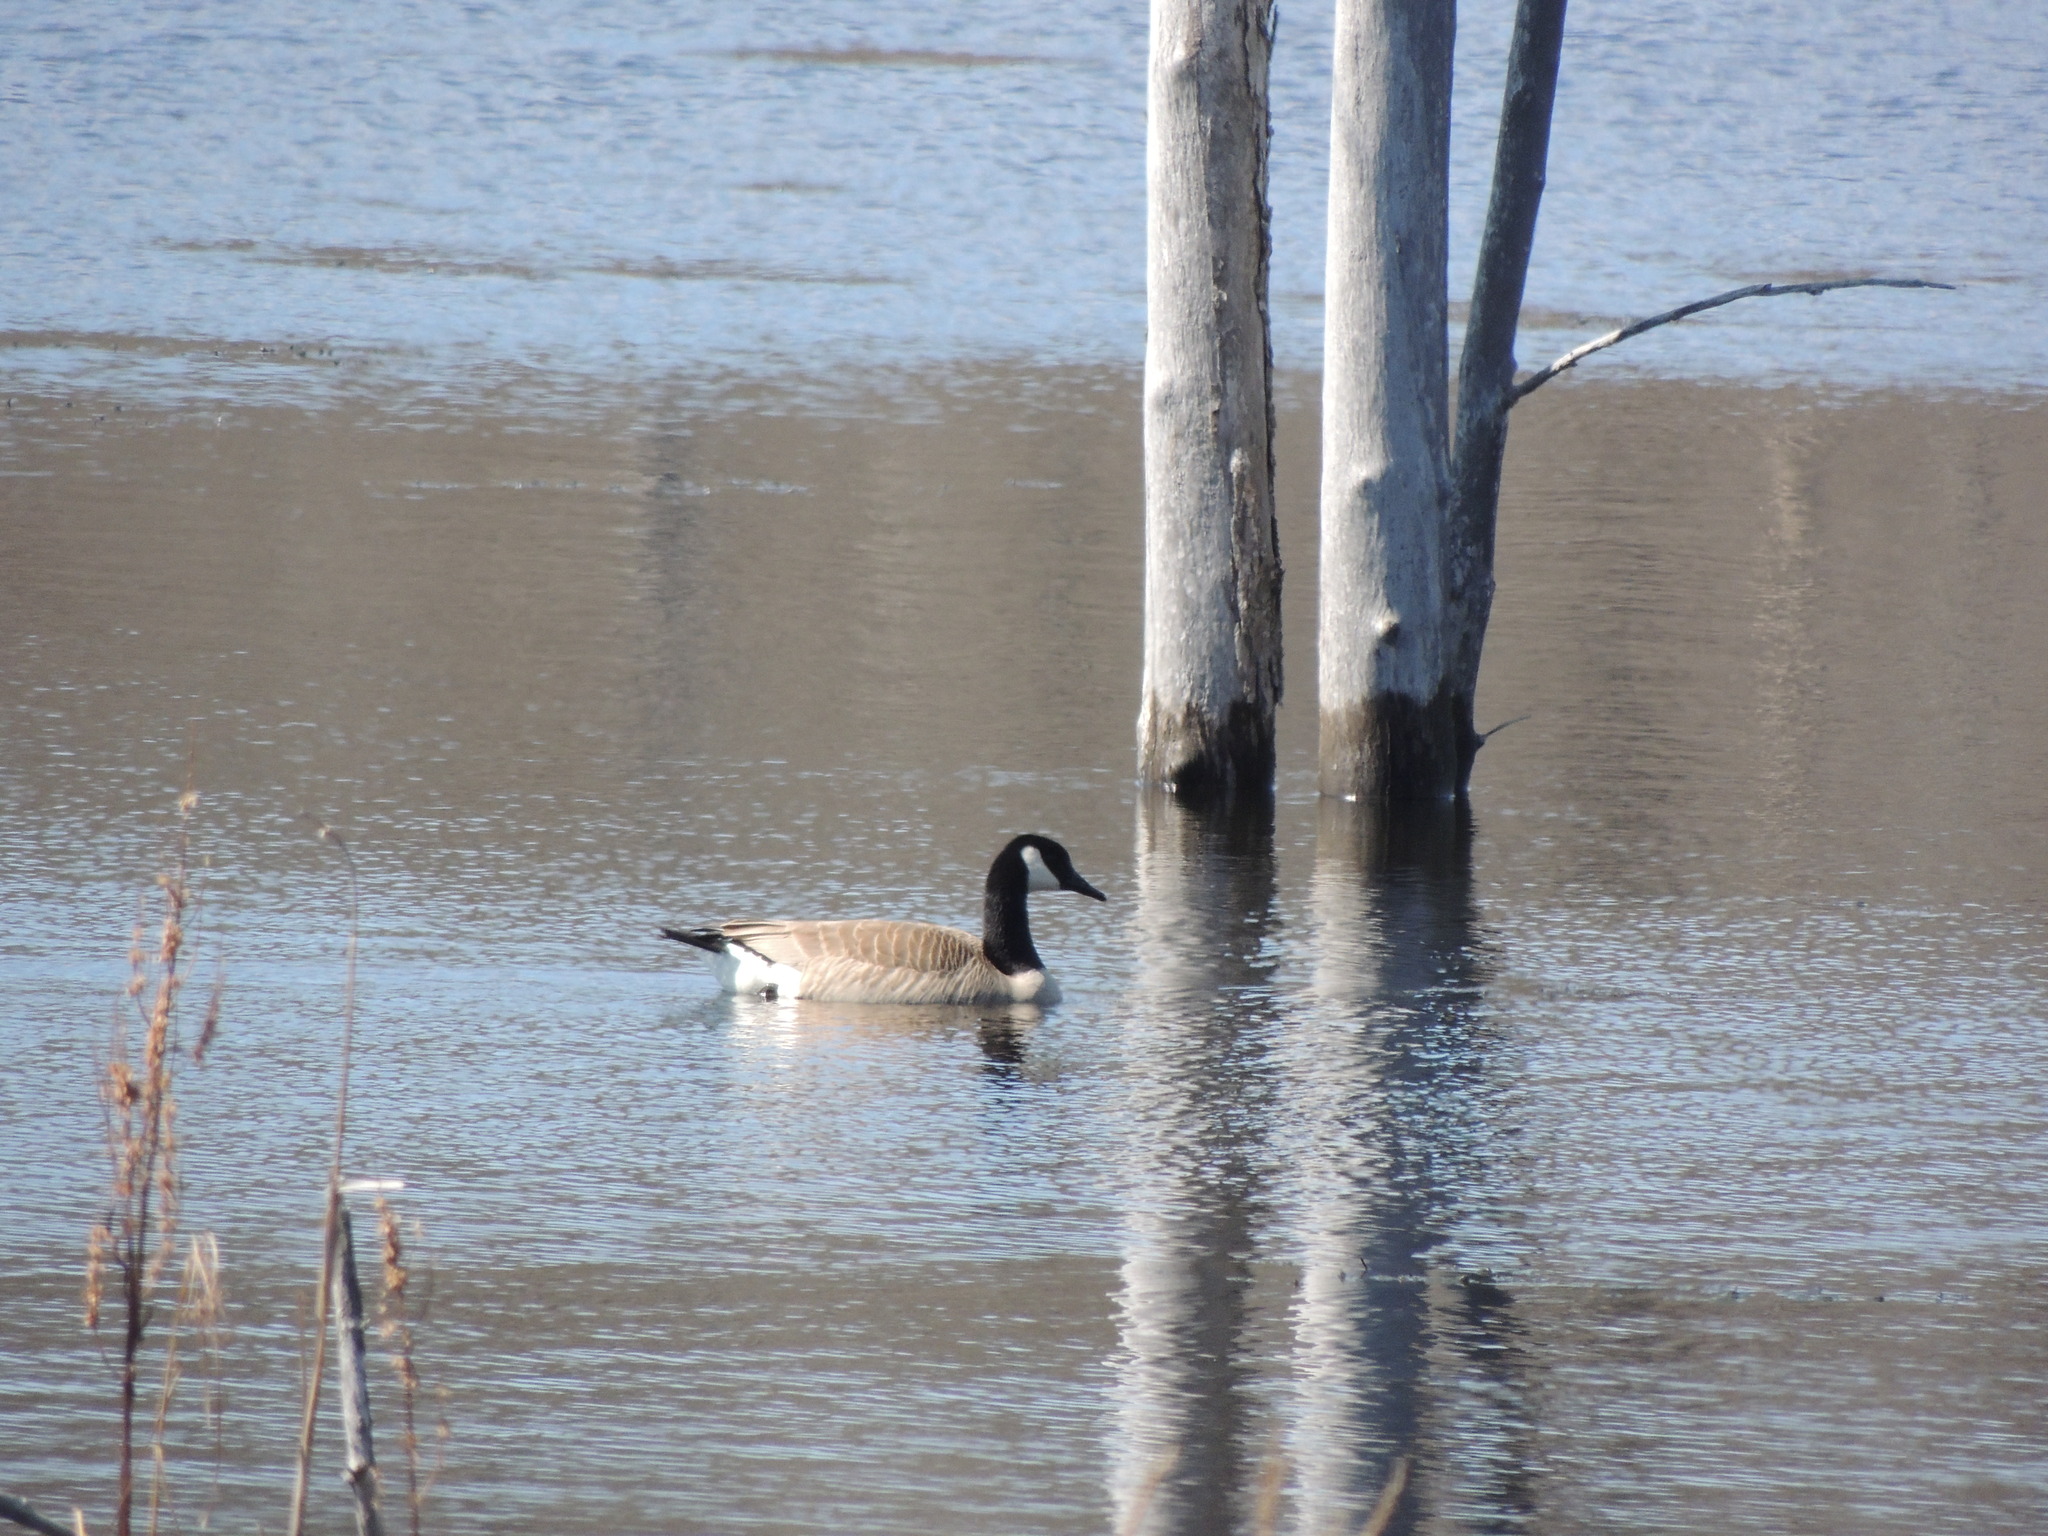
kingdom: Animalia
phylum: Chordata
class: Aves
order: Anseriformes
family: Anatidae
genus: Branta
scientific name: Branta canadensis
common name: Canada goose
